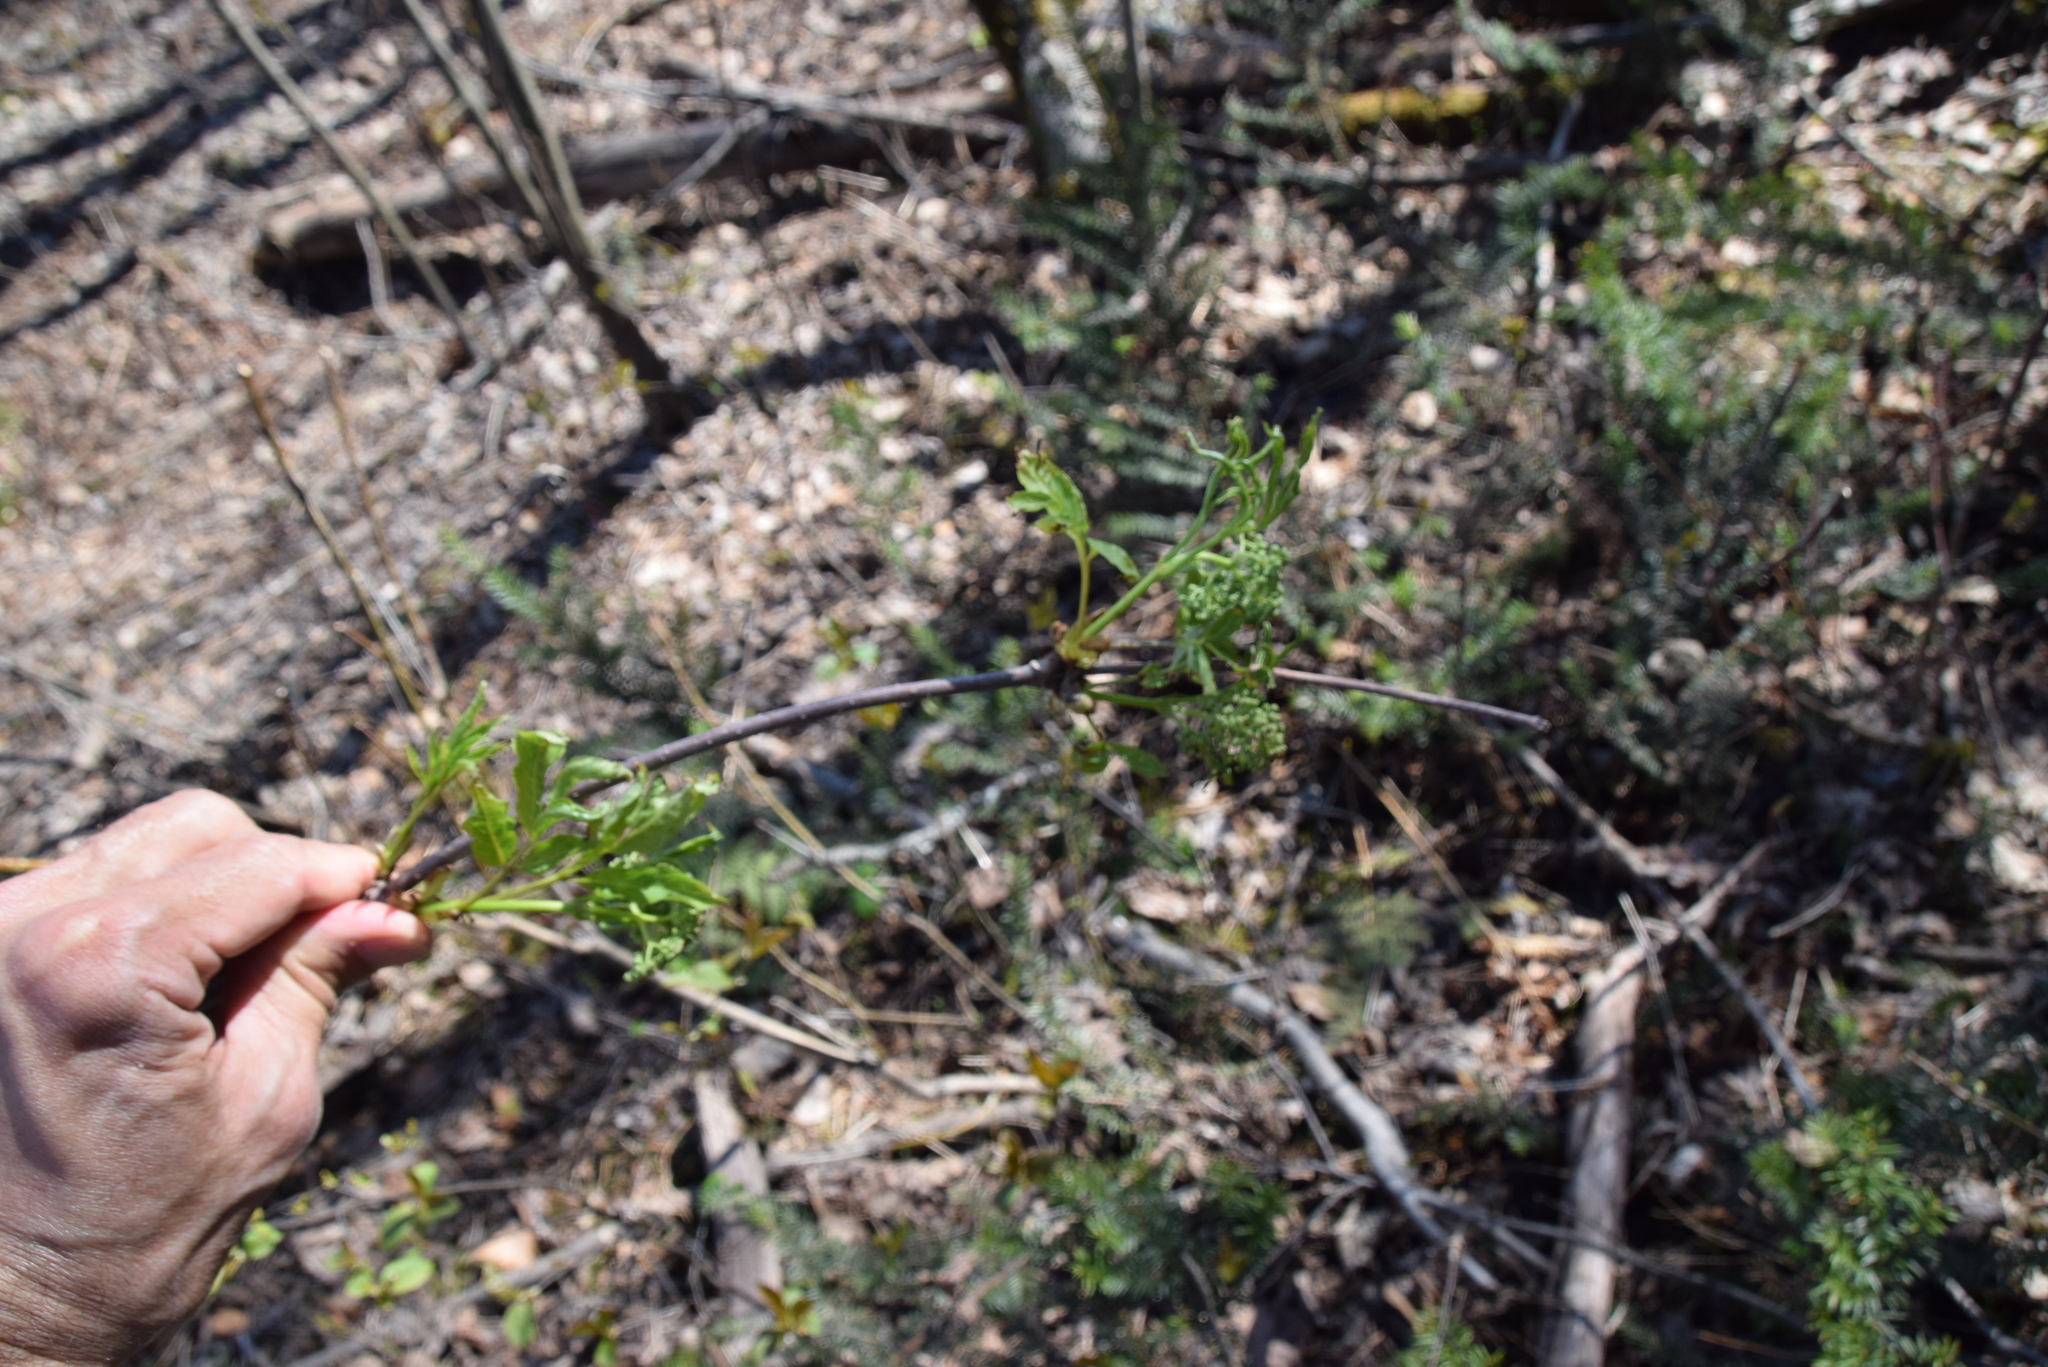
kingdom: Plantae
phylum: Tracheophyta
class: Magnoliopsida
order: Dipsacales
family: Viburnaceae
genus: Sambucus
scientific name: Sambucus racemosa
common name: Red-berried elder
